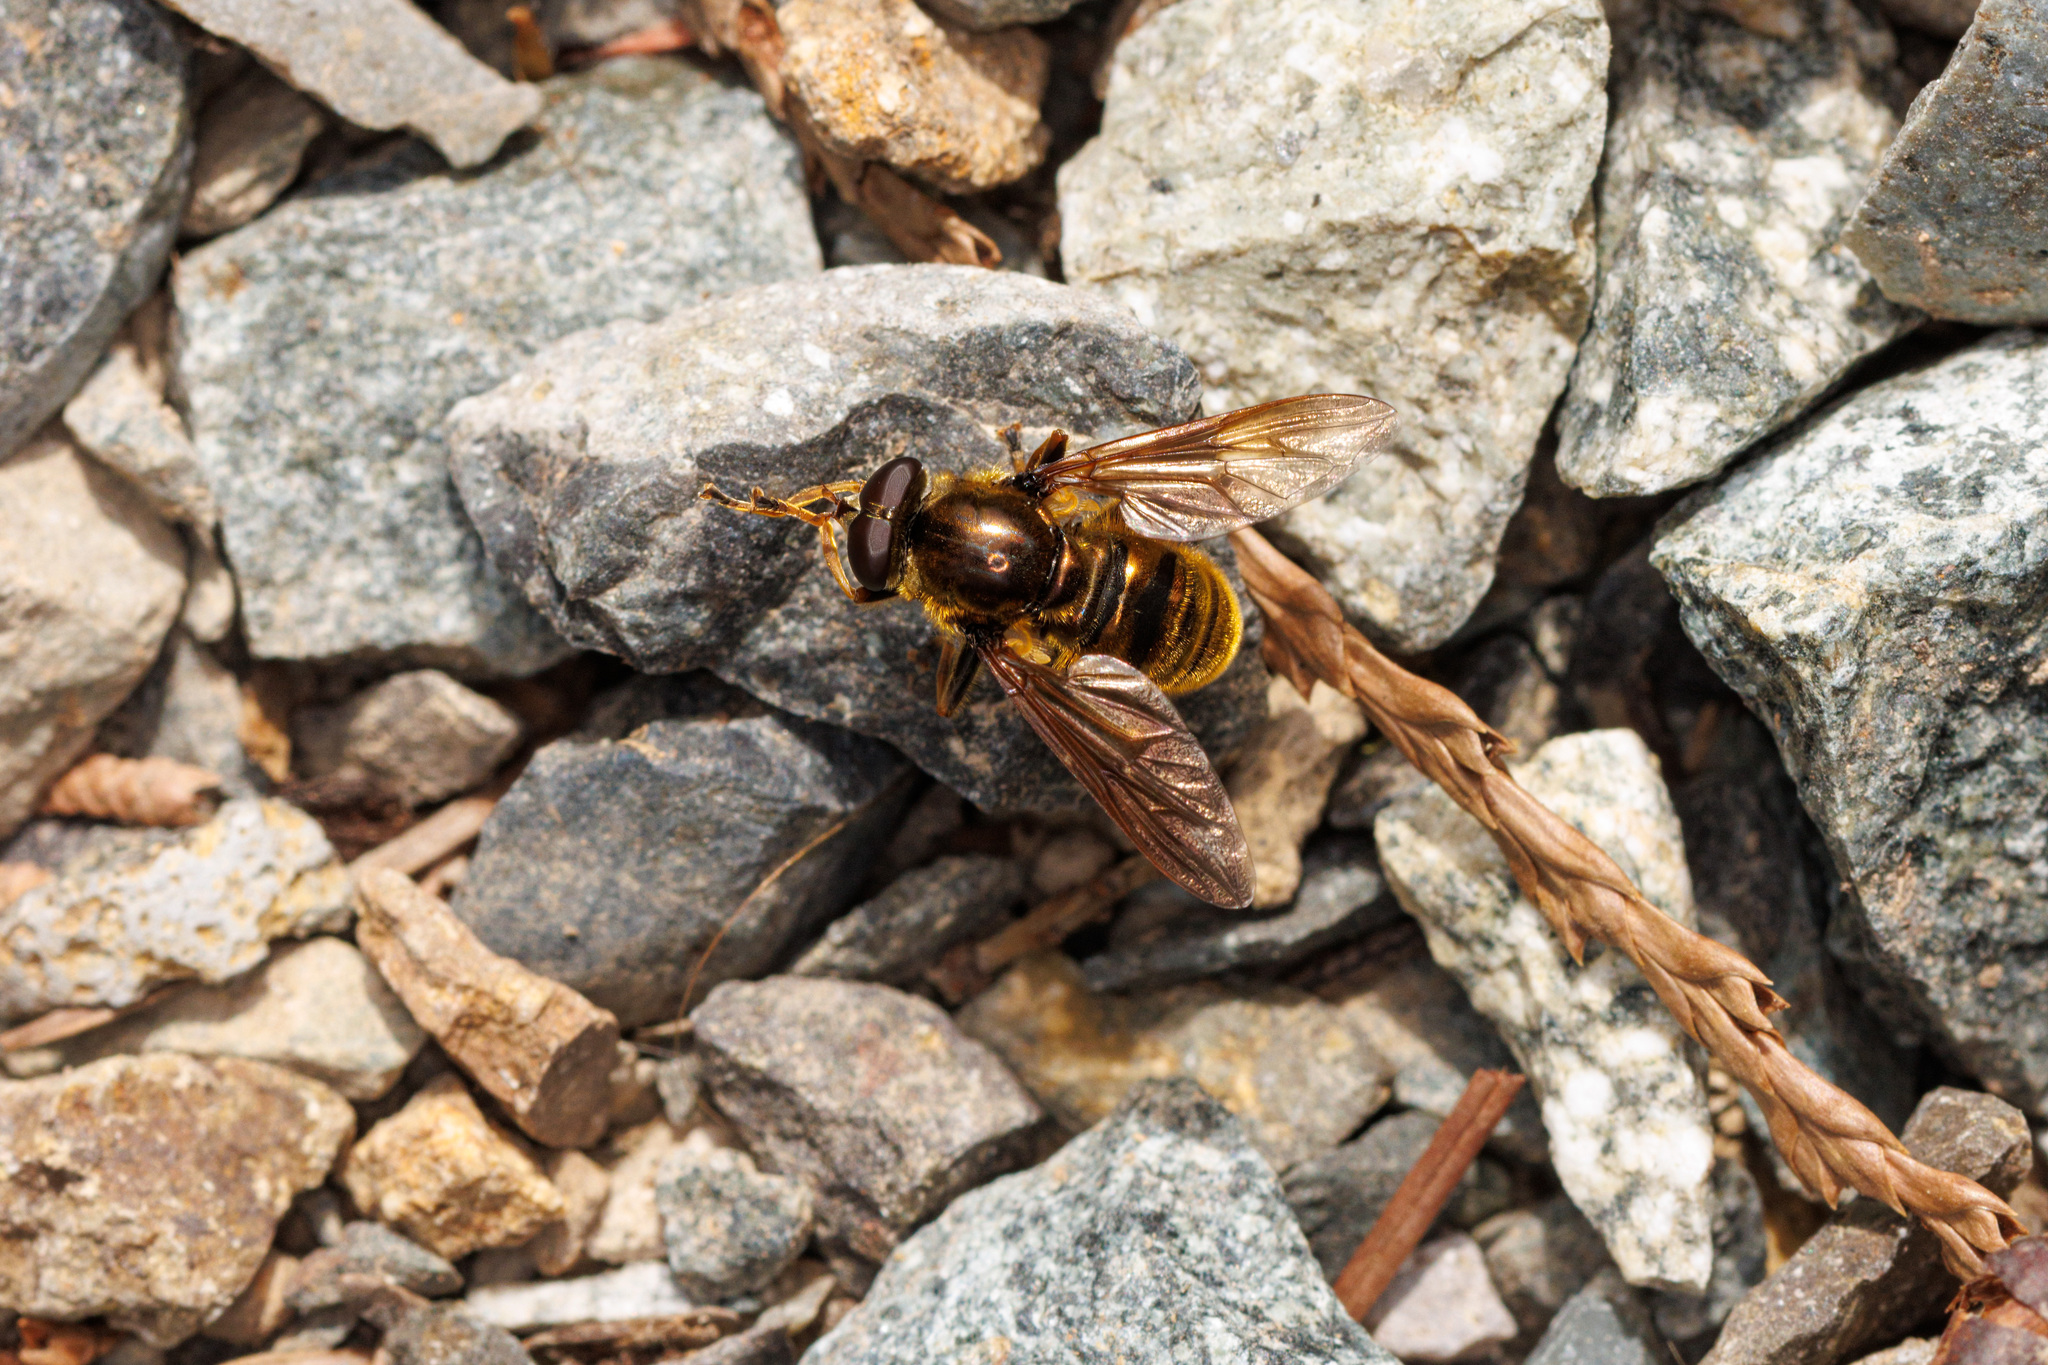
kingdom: Animalia
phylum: Arthropoda
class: Insecta
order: Diptera
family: Syrphidae
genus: Hadromyia
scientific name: Hadromyia crawfordi
